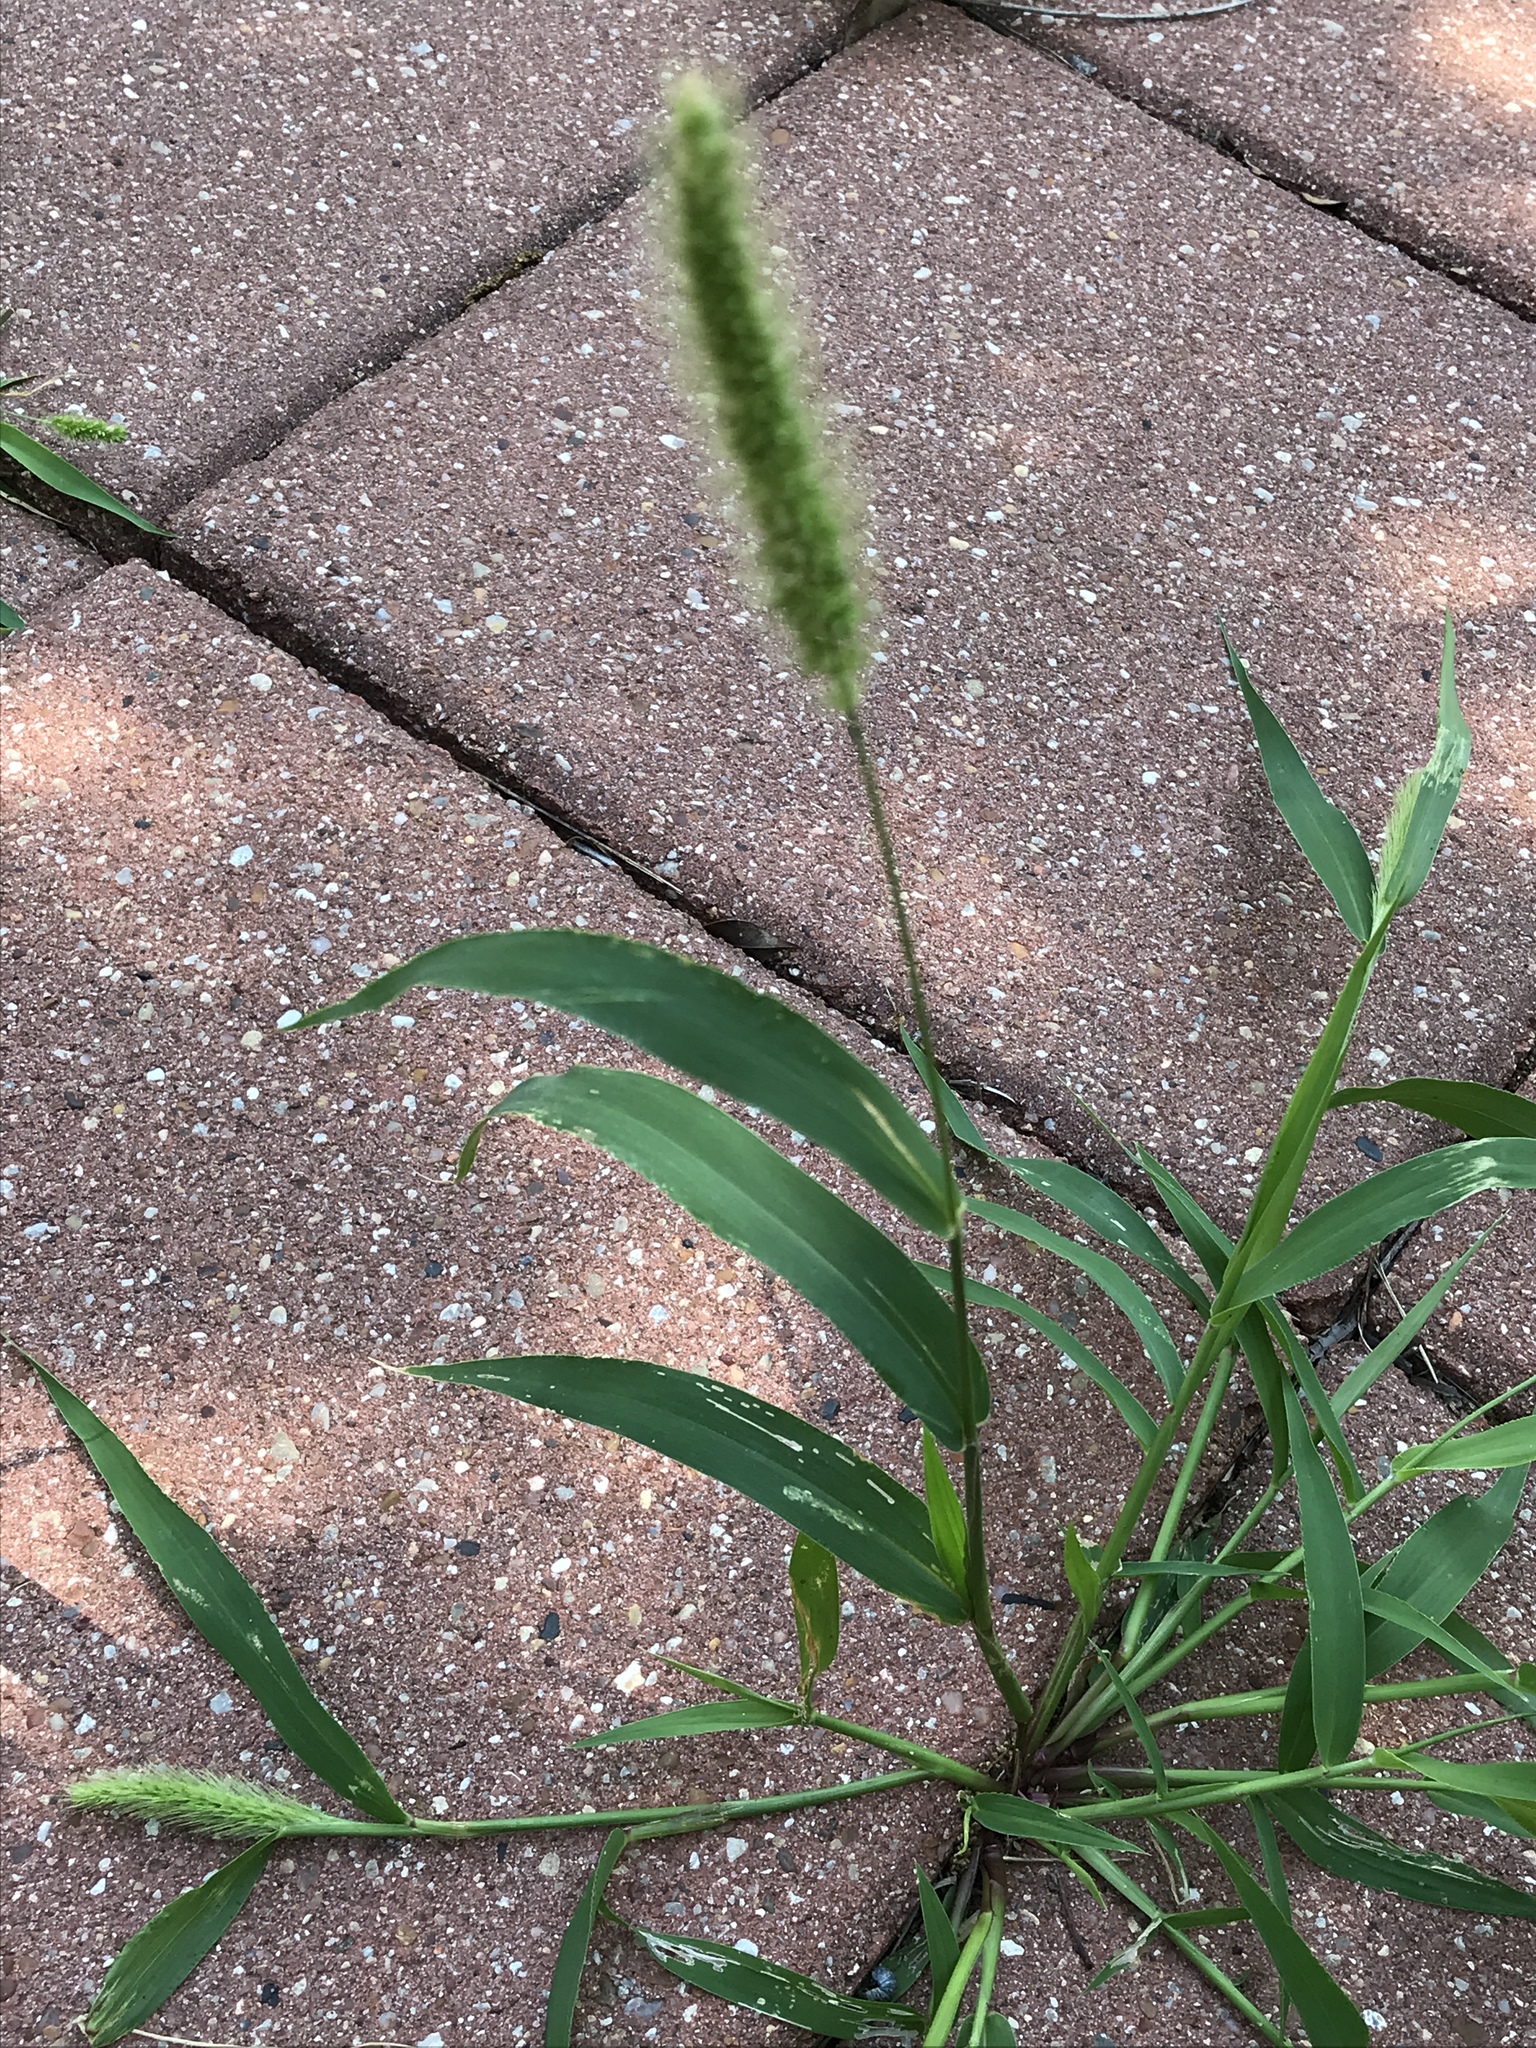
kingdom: Plantae
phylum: Tracheophyta
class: Liliopsida
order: Poales
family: Poaceae
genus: Setaria
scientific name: Setaria viridis
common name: Green bristlegrass
